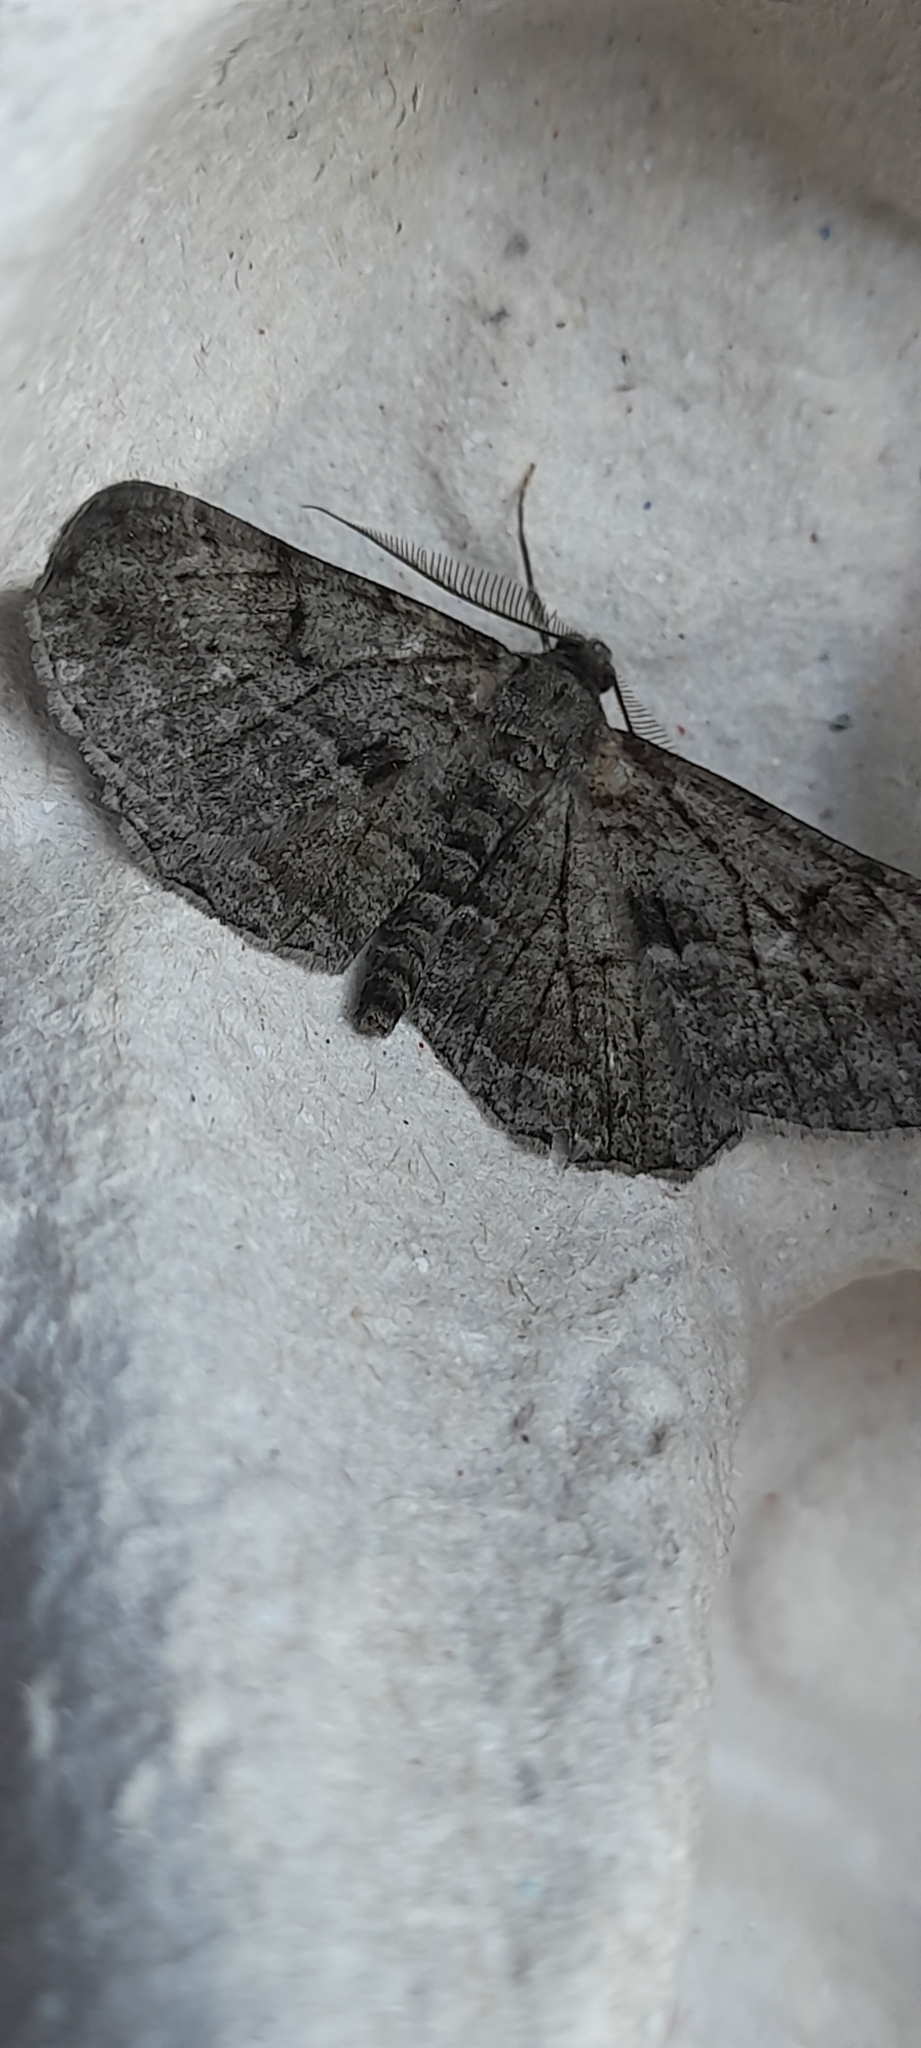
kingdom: Animalia
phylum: Arthropoda
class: Insecta
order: Lepidoptera
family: Geometridae
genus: Peribatodes
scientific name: Peribatodes rhomboidaria
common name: Willow beauty
